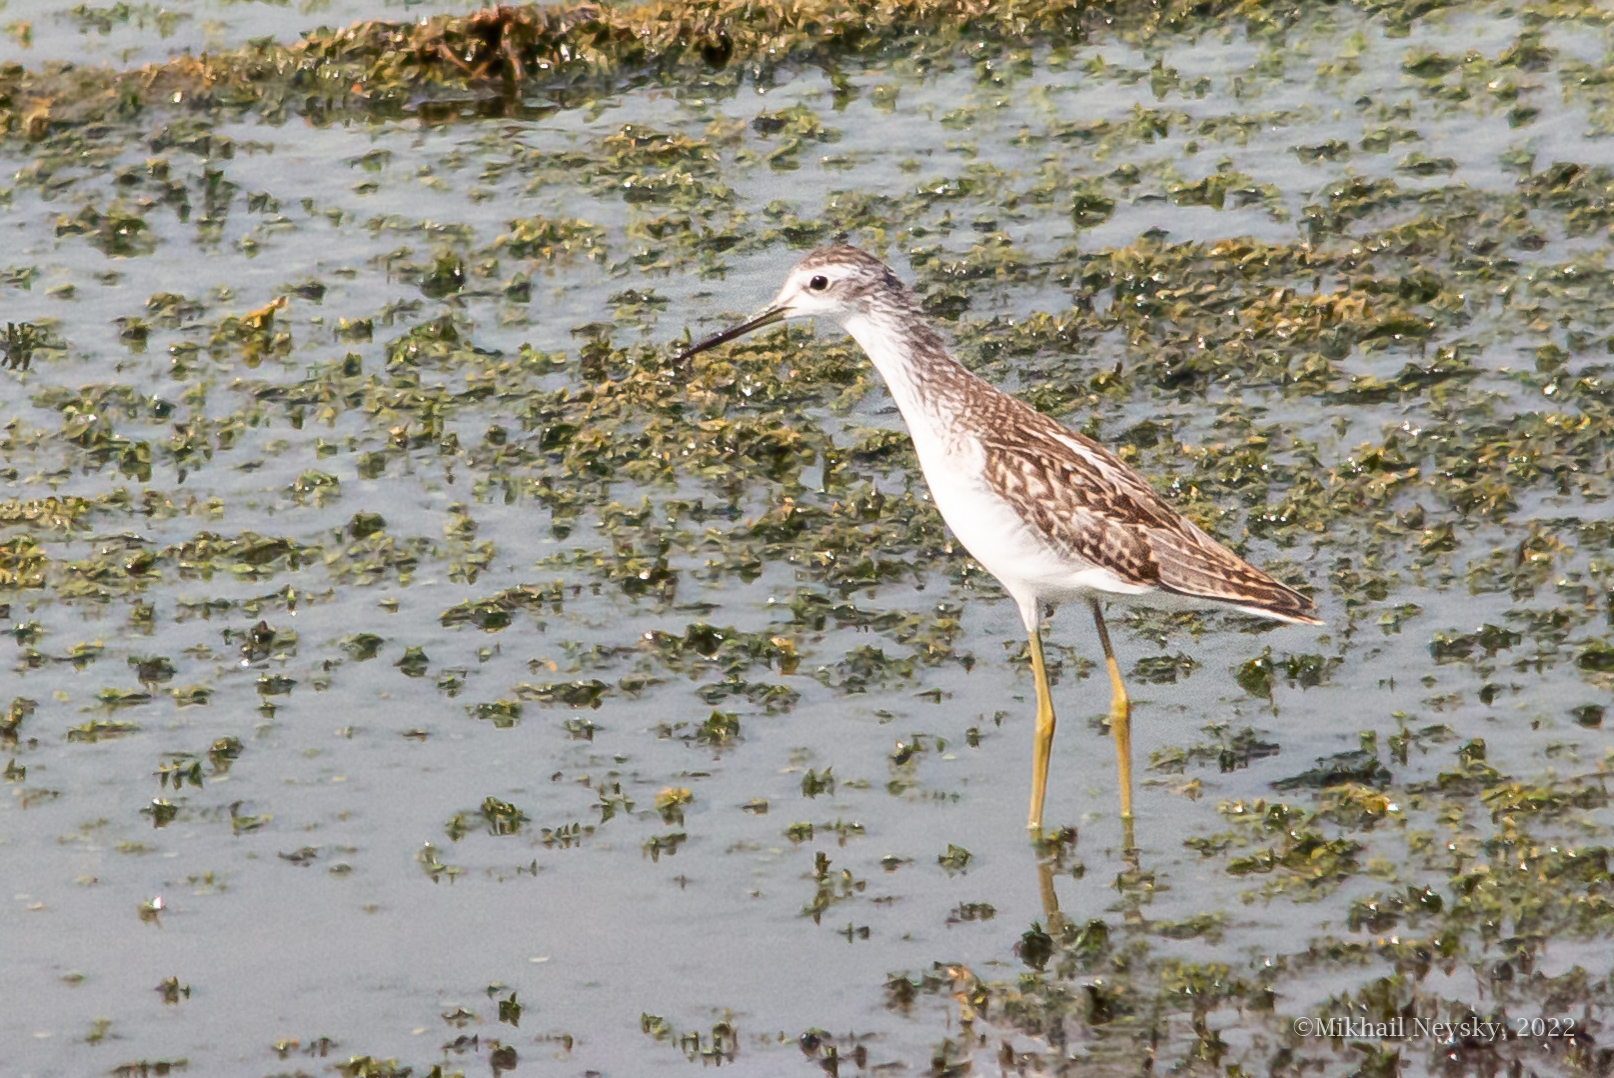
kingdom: Animalia
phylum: Chordata
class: Aves
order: Charadriiformes
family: Scolopacidae
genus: Tringa
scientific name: Tringa stagnatilis
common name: Marsh sandpiper
